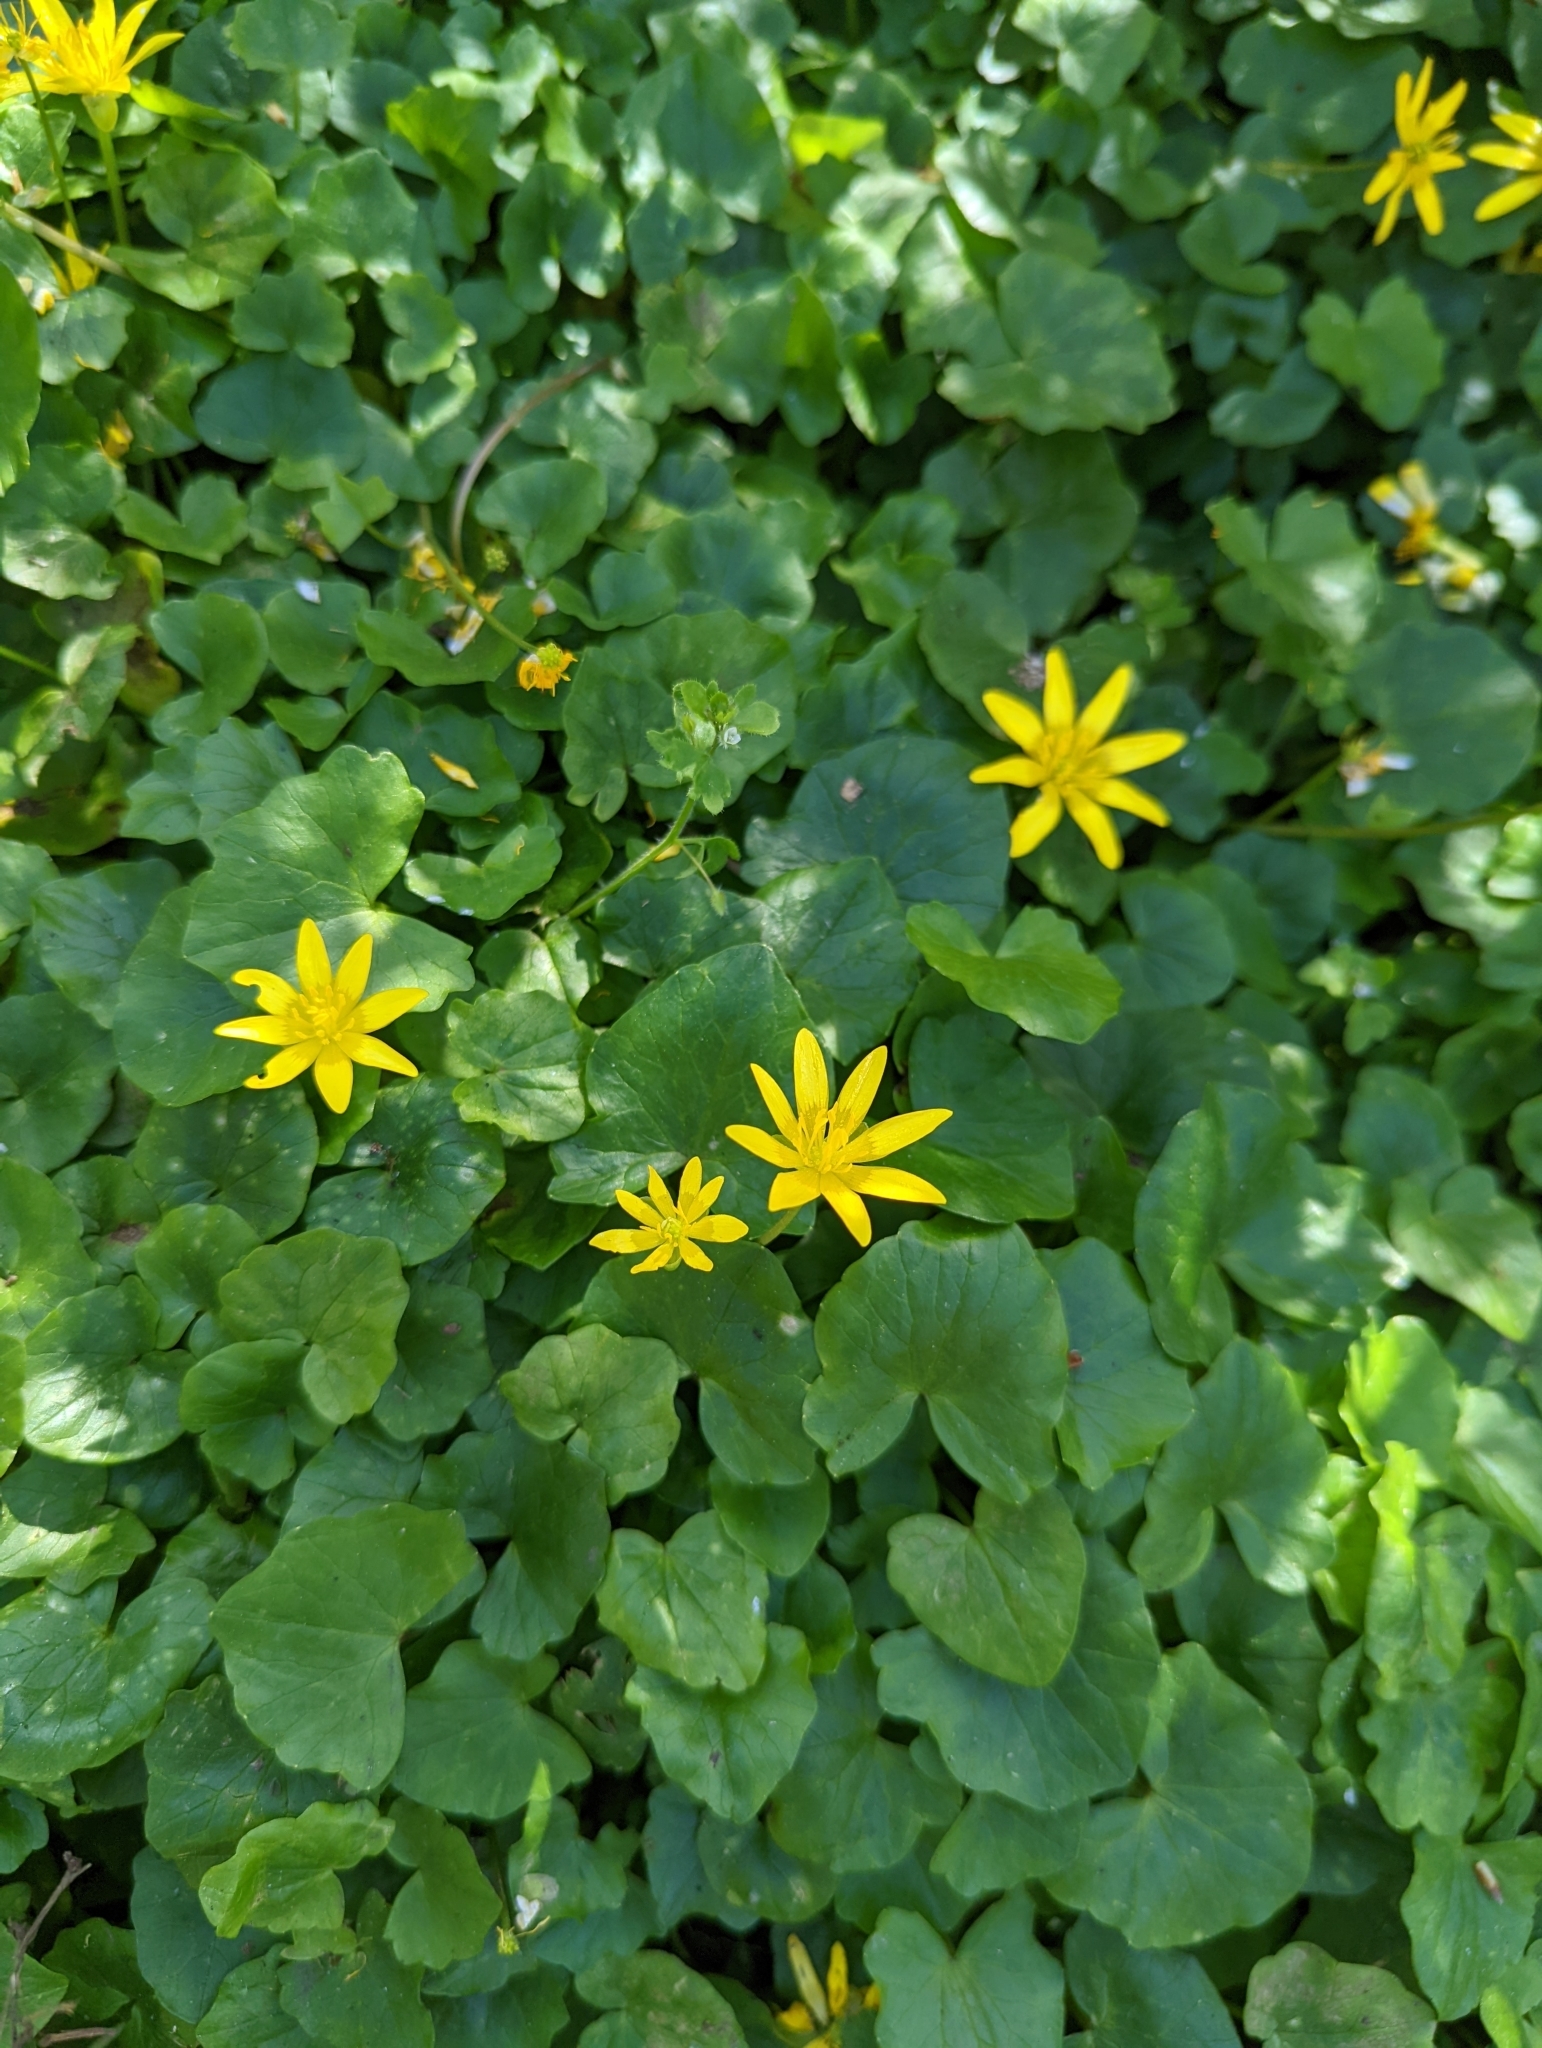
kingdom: Plantae
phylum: Tracheophyta
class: Magnoliopsida
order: Ranunculales
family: Ranunculaceae
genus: Ficaria
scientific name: Ficaria verna
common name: Lesser celandine
